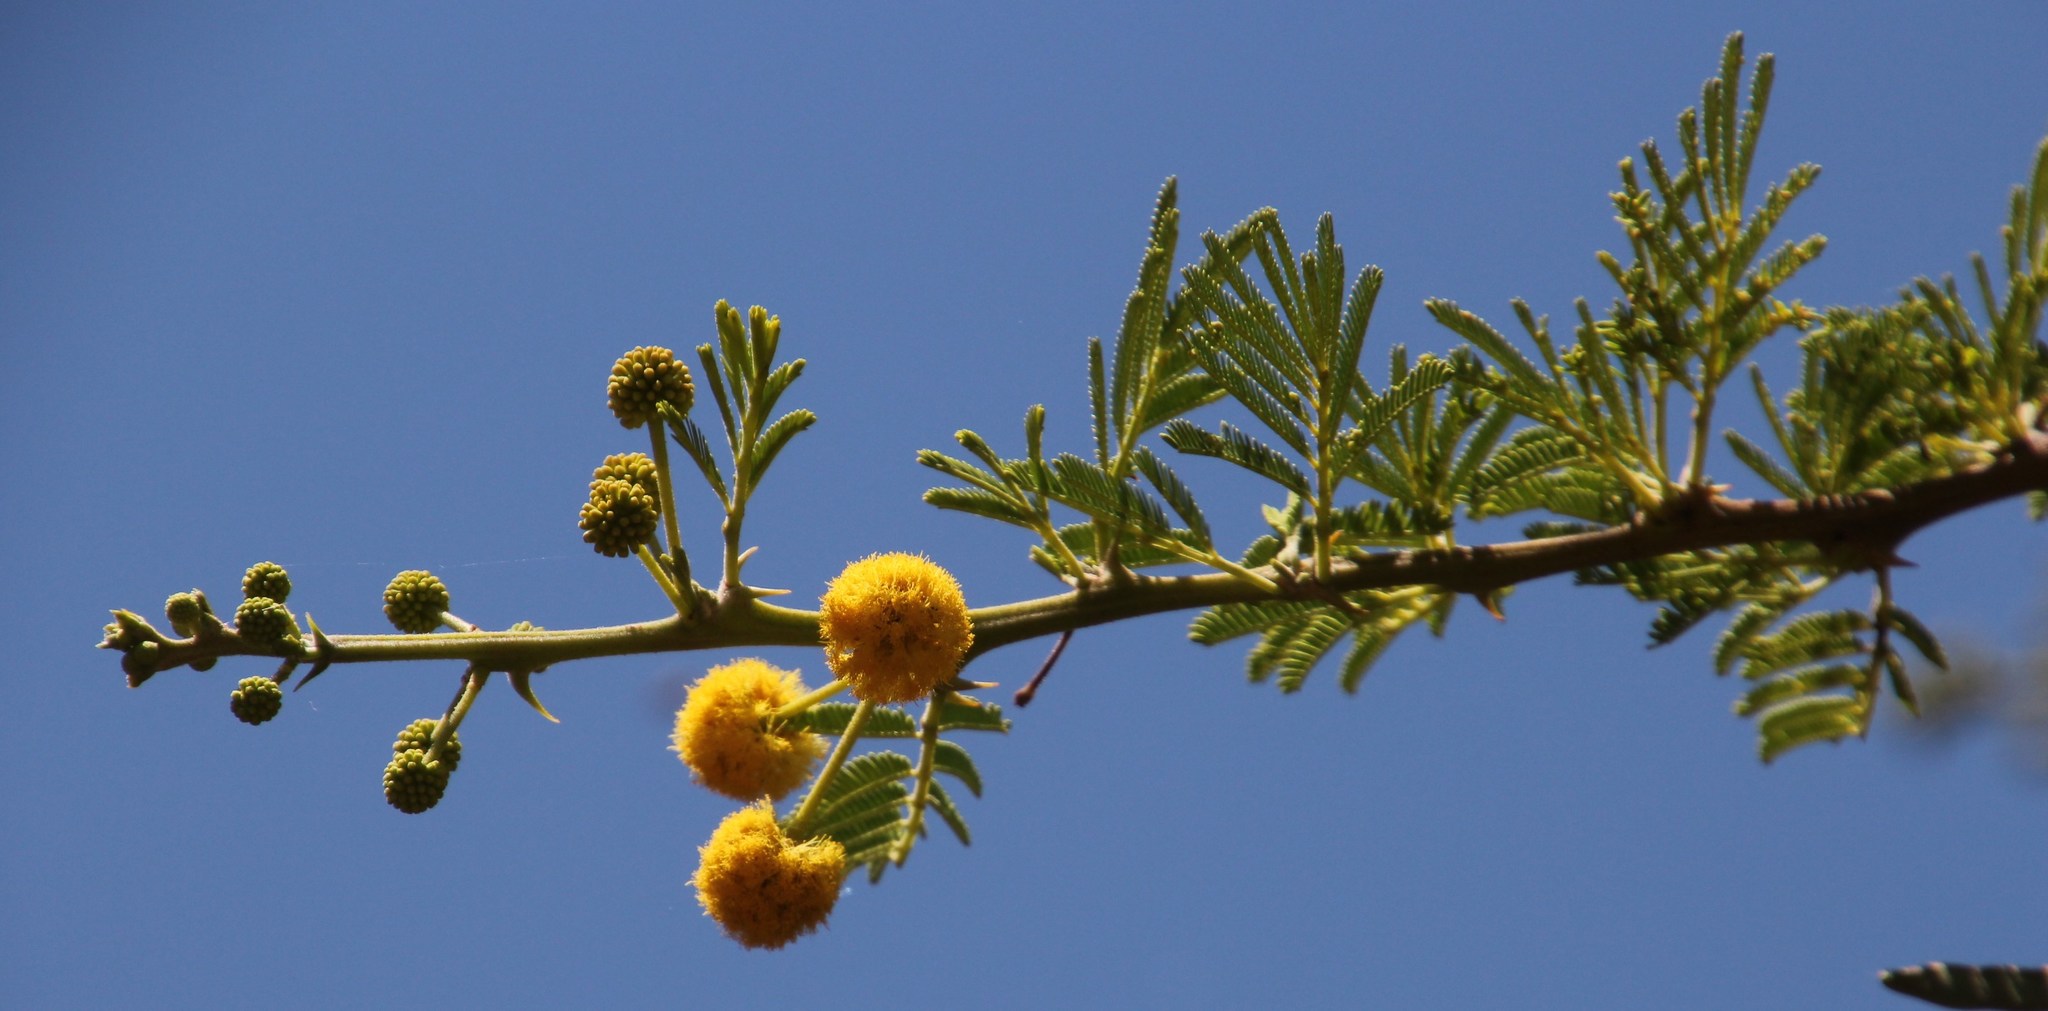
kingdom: Plantae
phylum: Tracheophyta
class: Magnoliopsida
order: Fabales
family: Fabaceae
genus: Vachellia
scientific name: Vachellia nilotica
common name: Arabic gumtree
